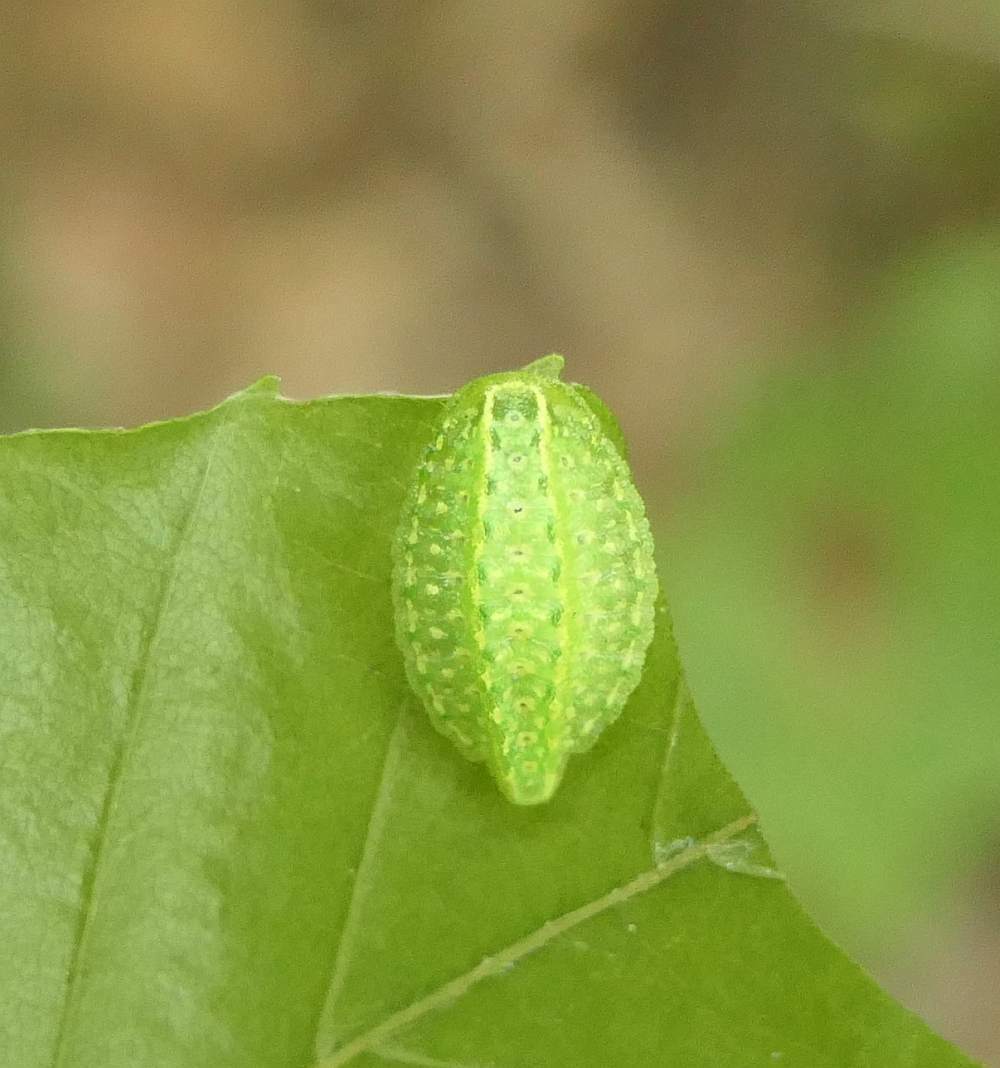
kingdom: Animalia
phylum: Arthropoda
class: Insecta
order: Lepidoptera
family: Limacodidae
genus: Lithacodes
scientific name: Lithacodes fasciola
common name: Yellow-shouldered slug moth
